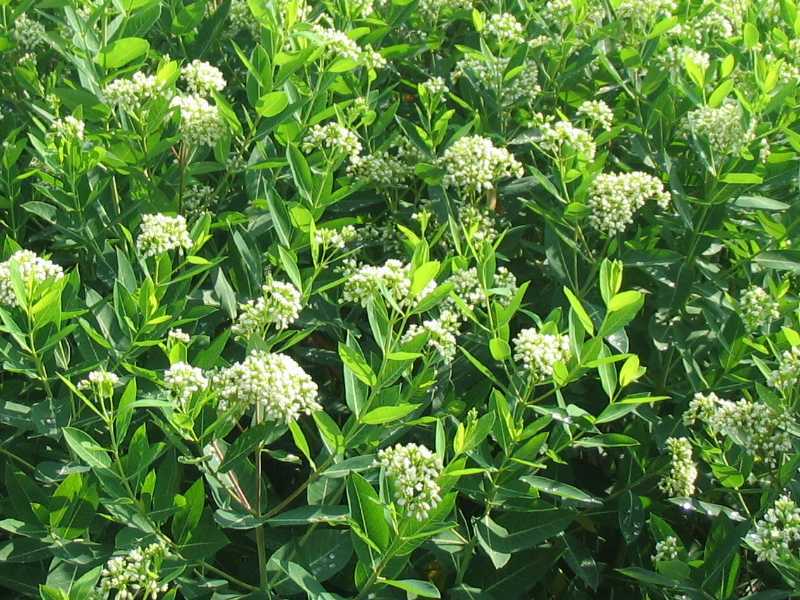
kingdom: Plantae
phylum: Tracheophyta
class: Magnoliopsida
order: Gentianales
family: Apocynaceae
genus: Apocynum
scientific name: Apocynum cannabinum
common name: Hemp dogbane
